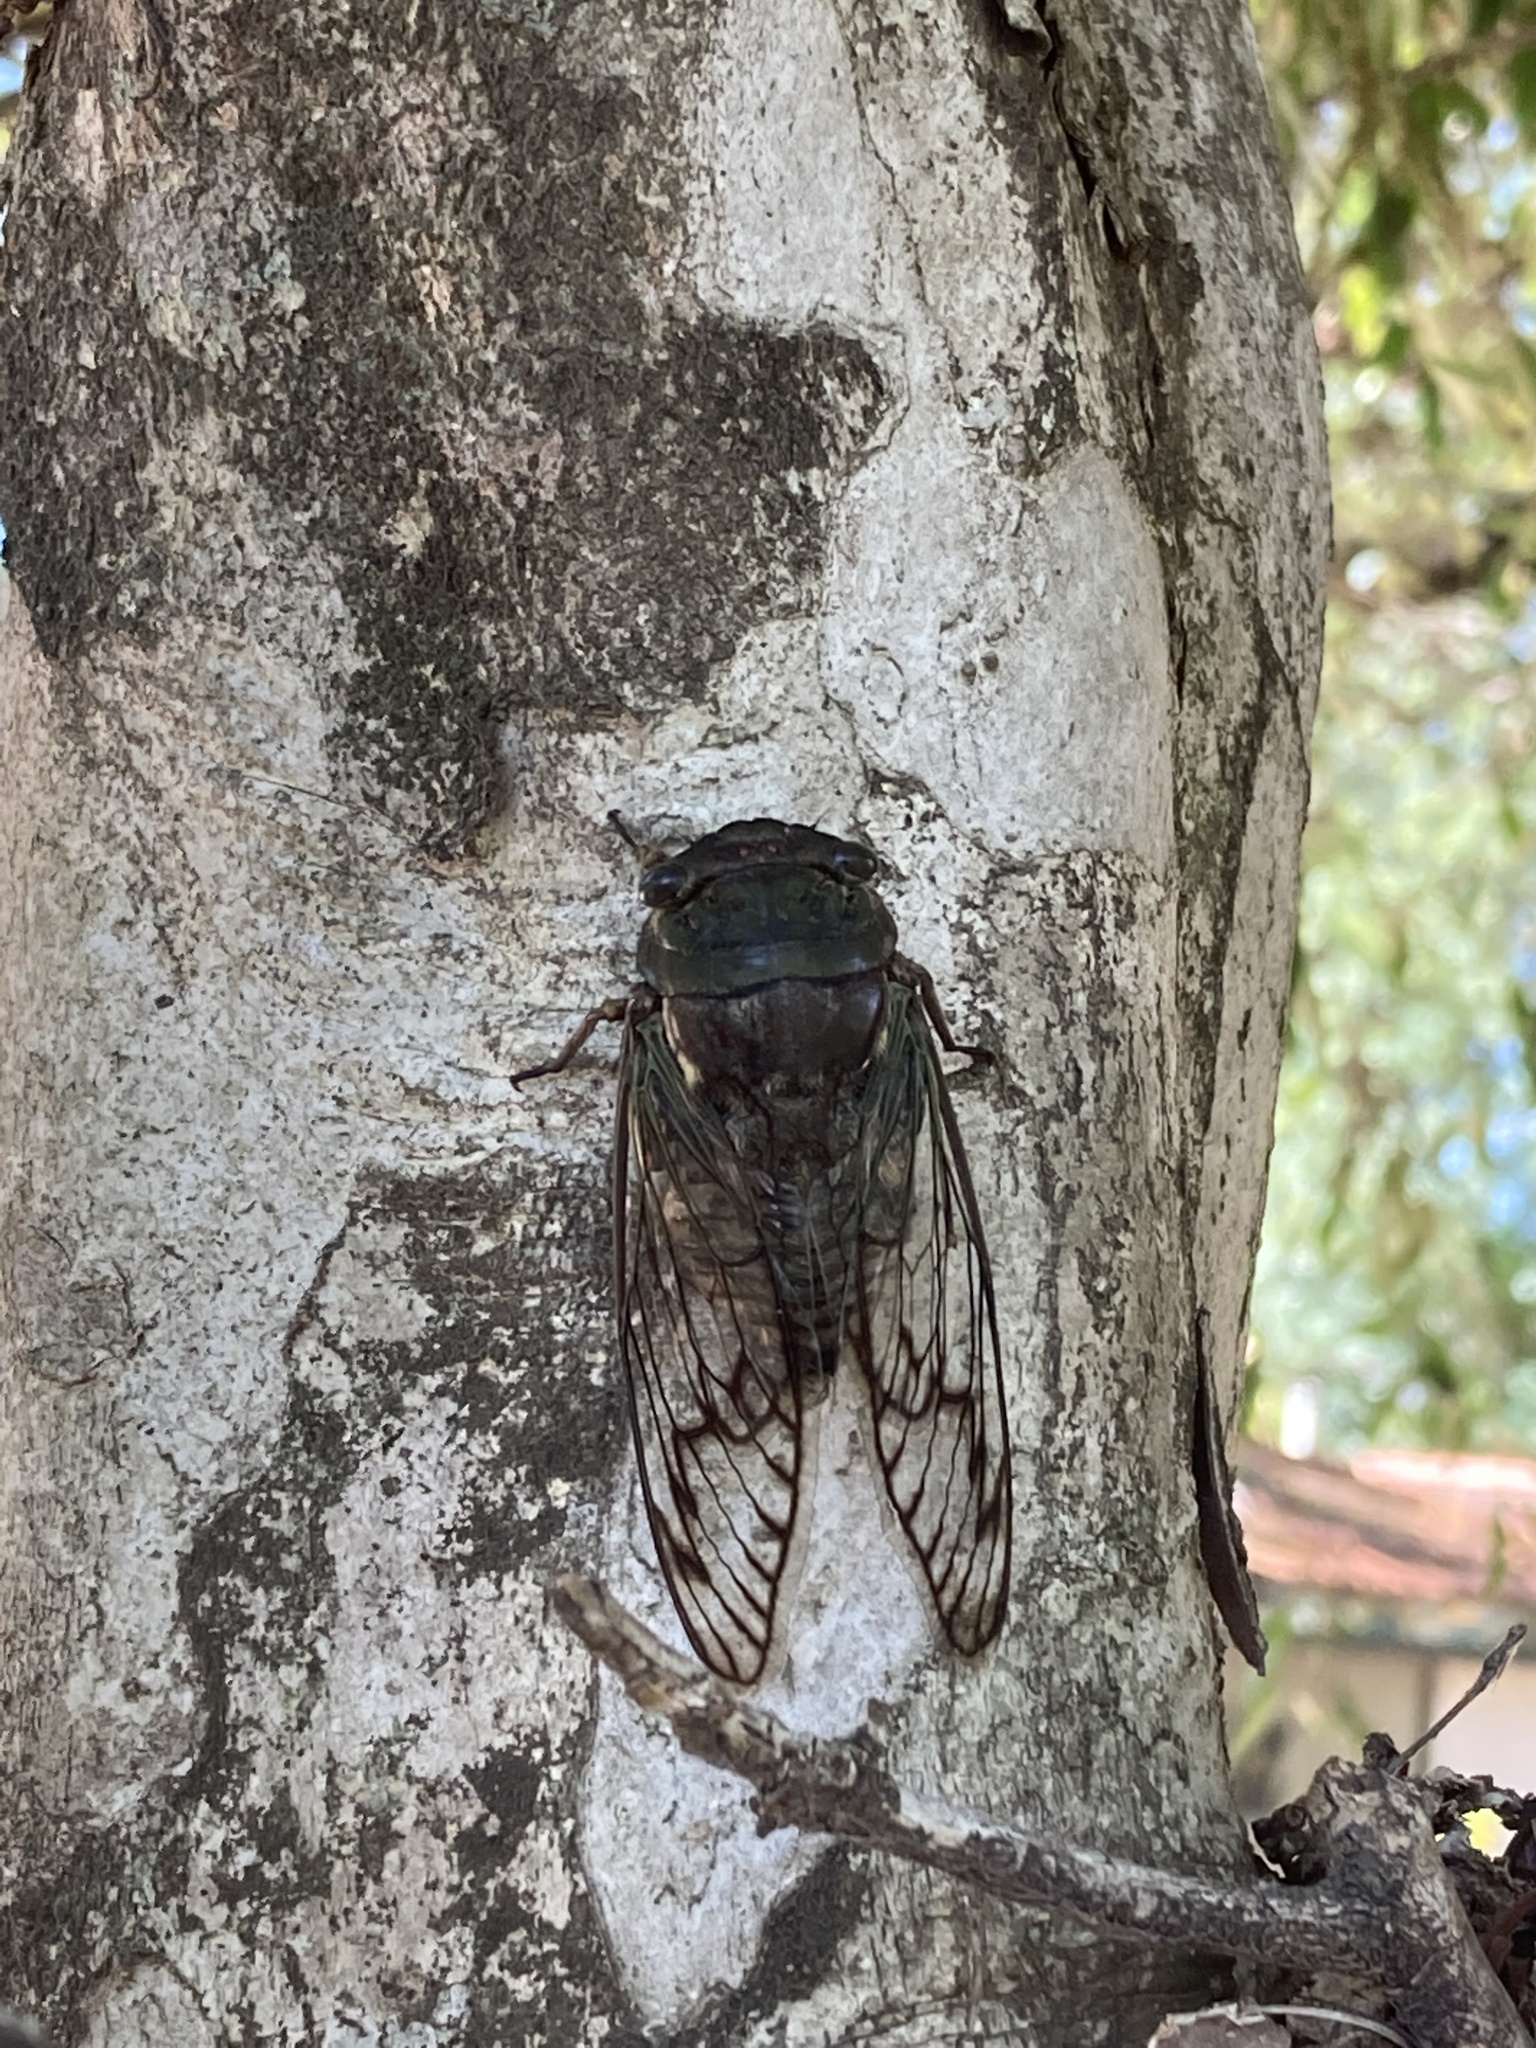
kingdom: Animalia
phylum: Arthropoda
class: Insecta
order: Hemiptera
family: Cicadidae
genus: Fidicina
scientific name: Fidicina torresi
